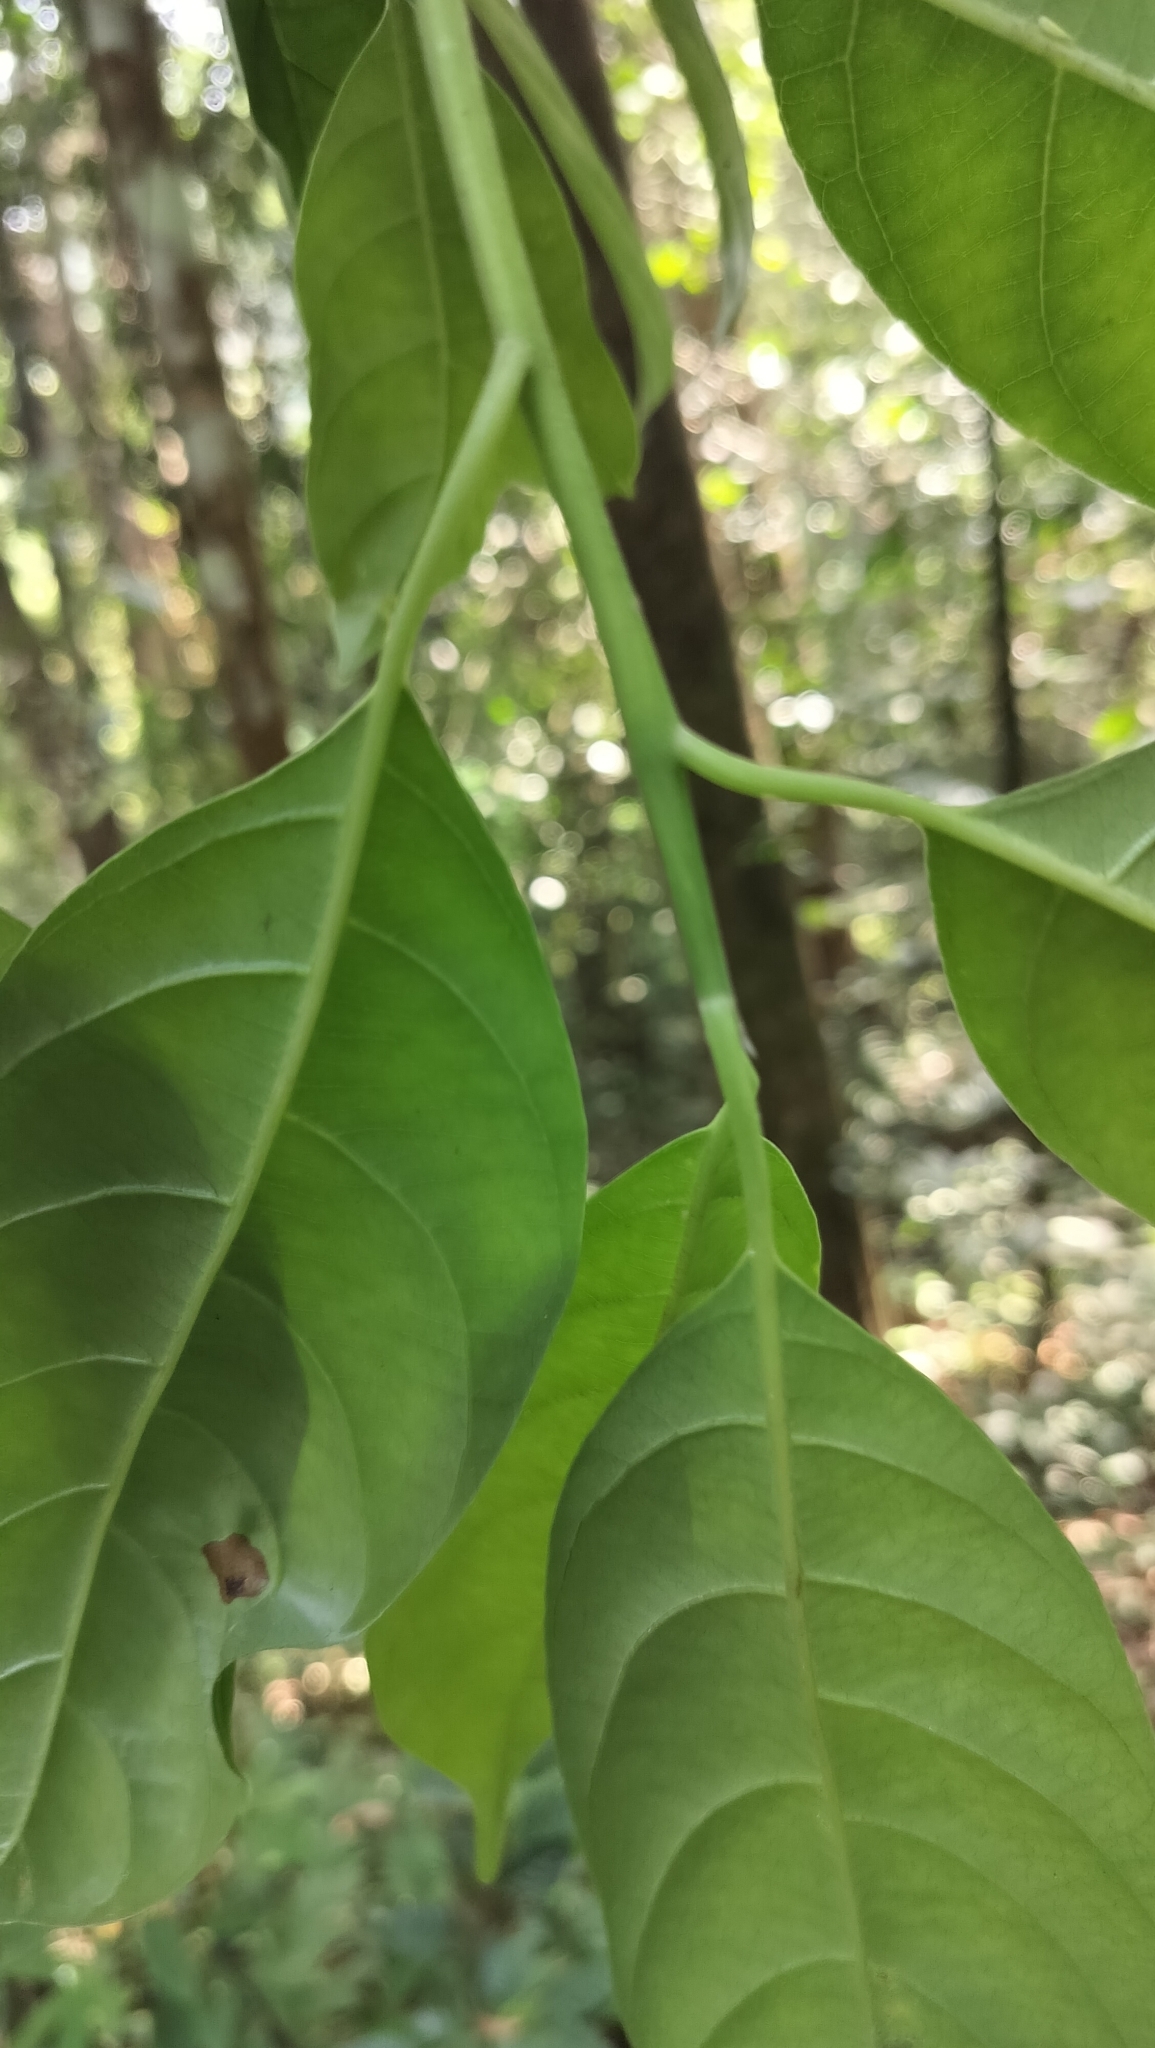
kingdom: Plantae
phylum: Tracheophyta
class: Magnoliopsida
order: Cornales
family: Nyssaceae
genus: Mastixia
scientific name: Mastixia arborea
